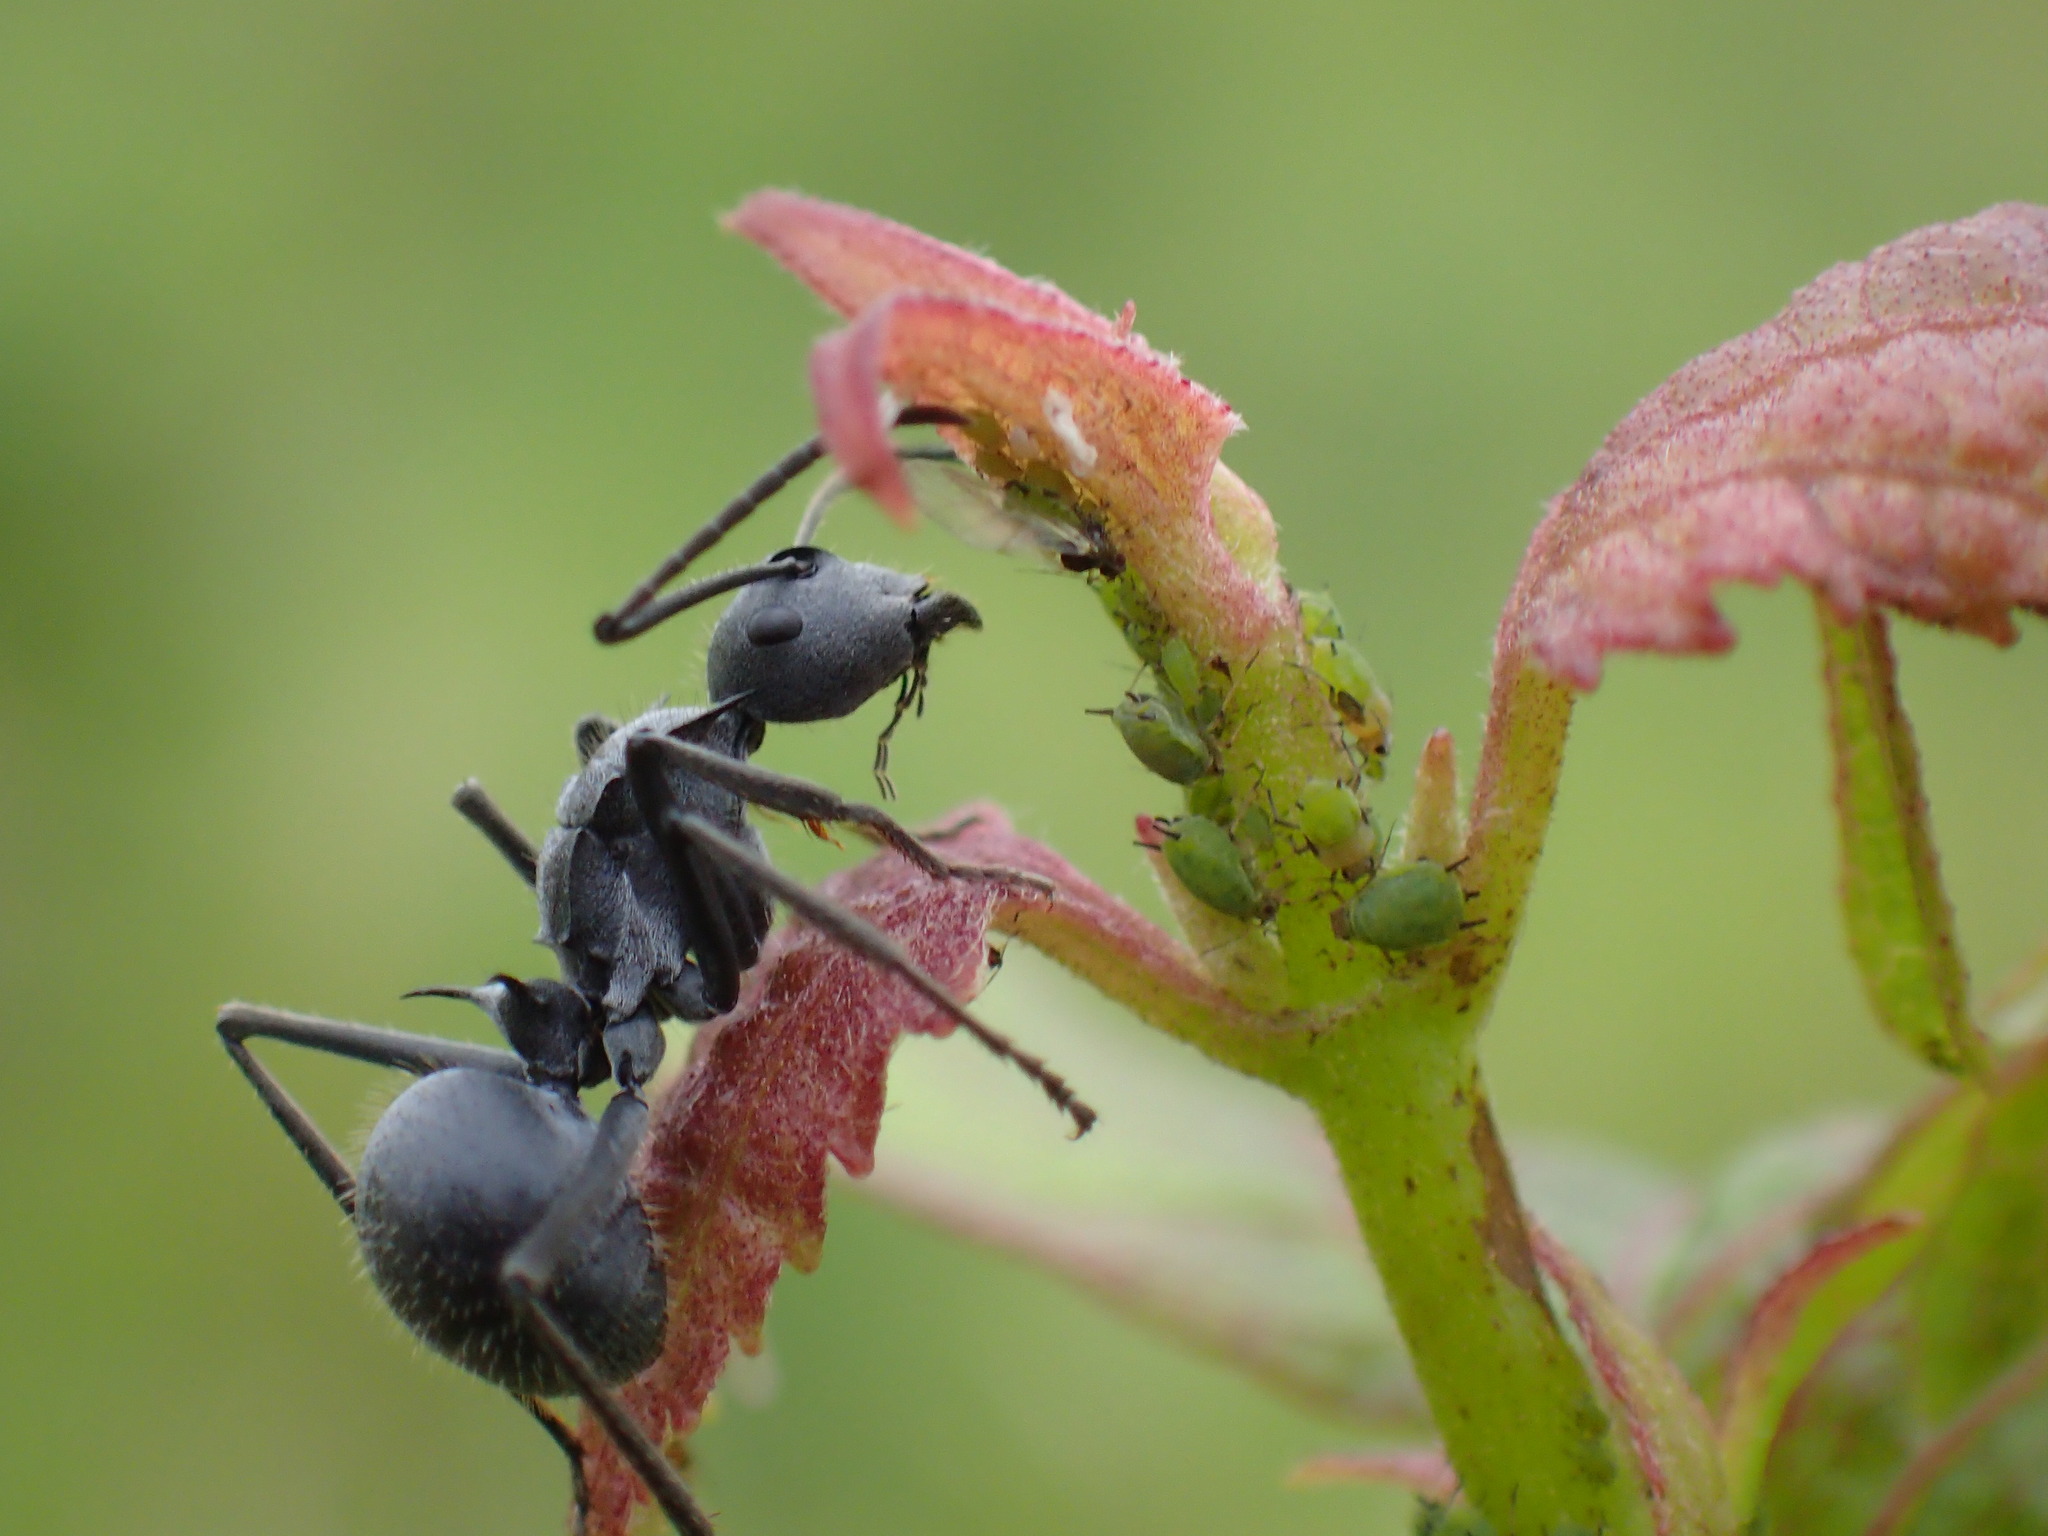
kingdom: Animalia
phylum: Arthropoda
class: Insecta
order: Hymenoptera
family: Formicidae
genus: Polyrhachis
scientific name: Polyrhachis schistacea
